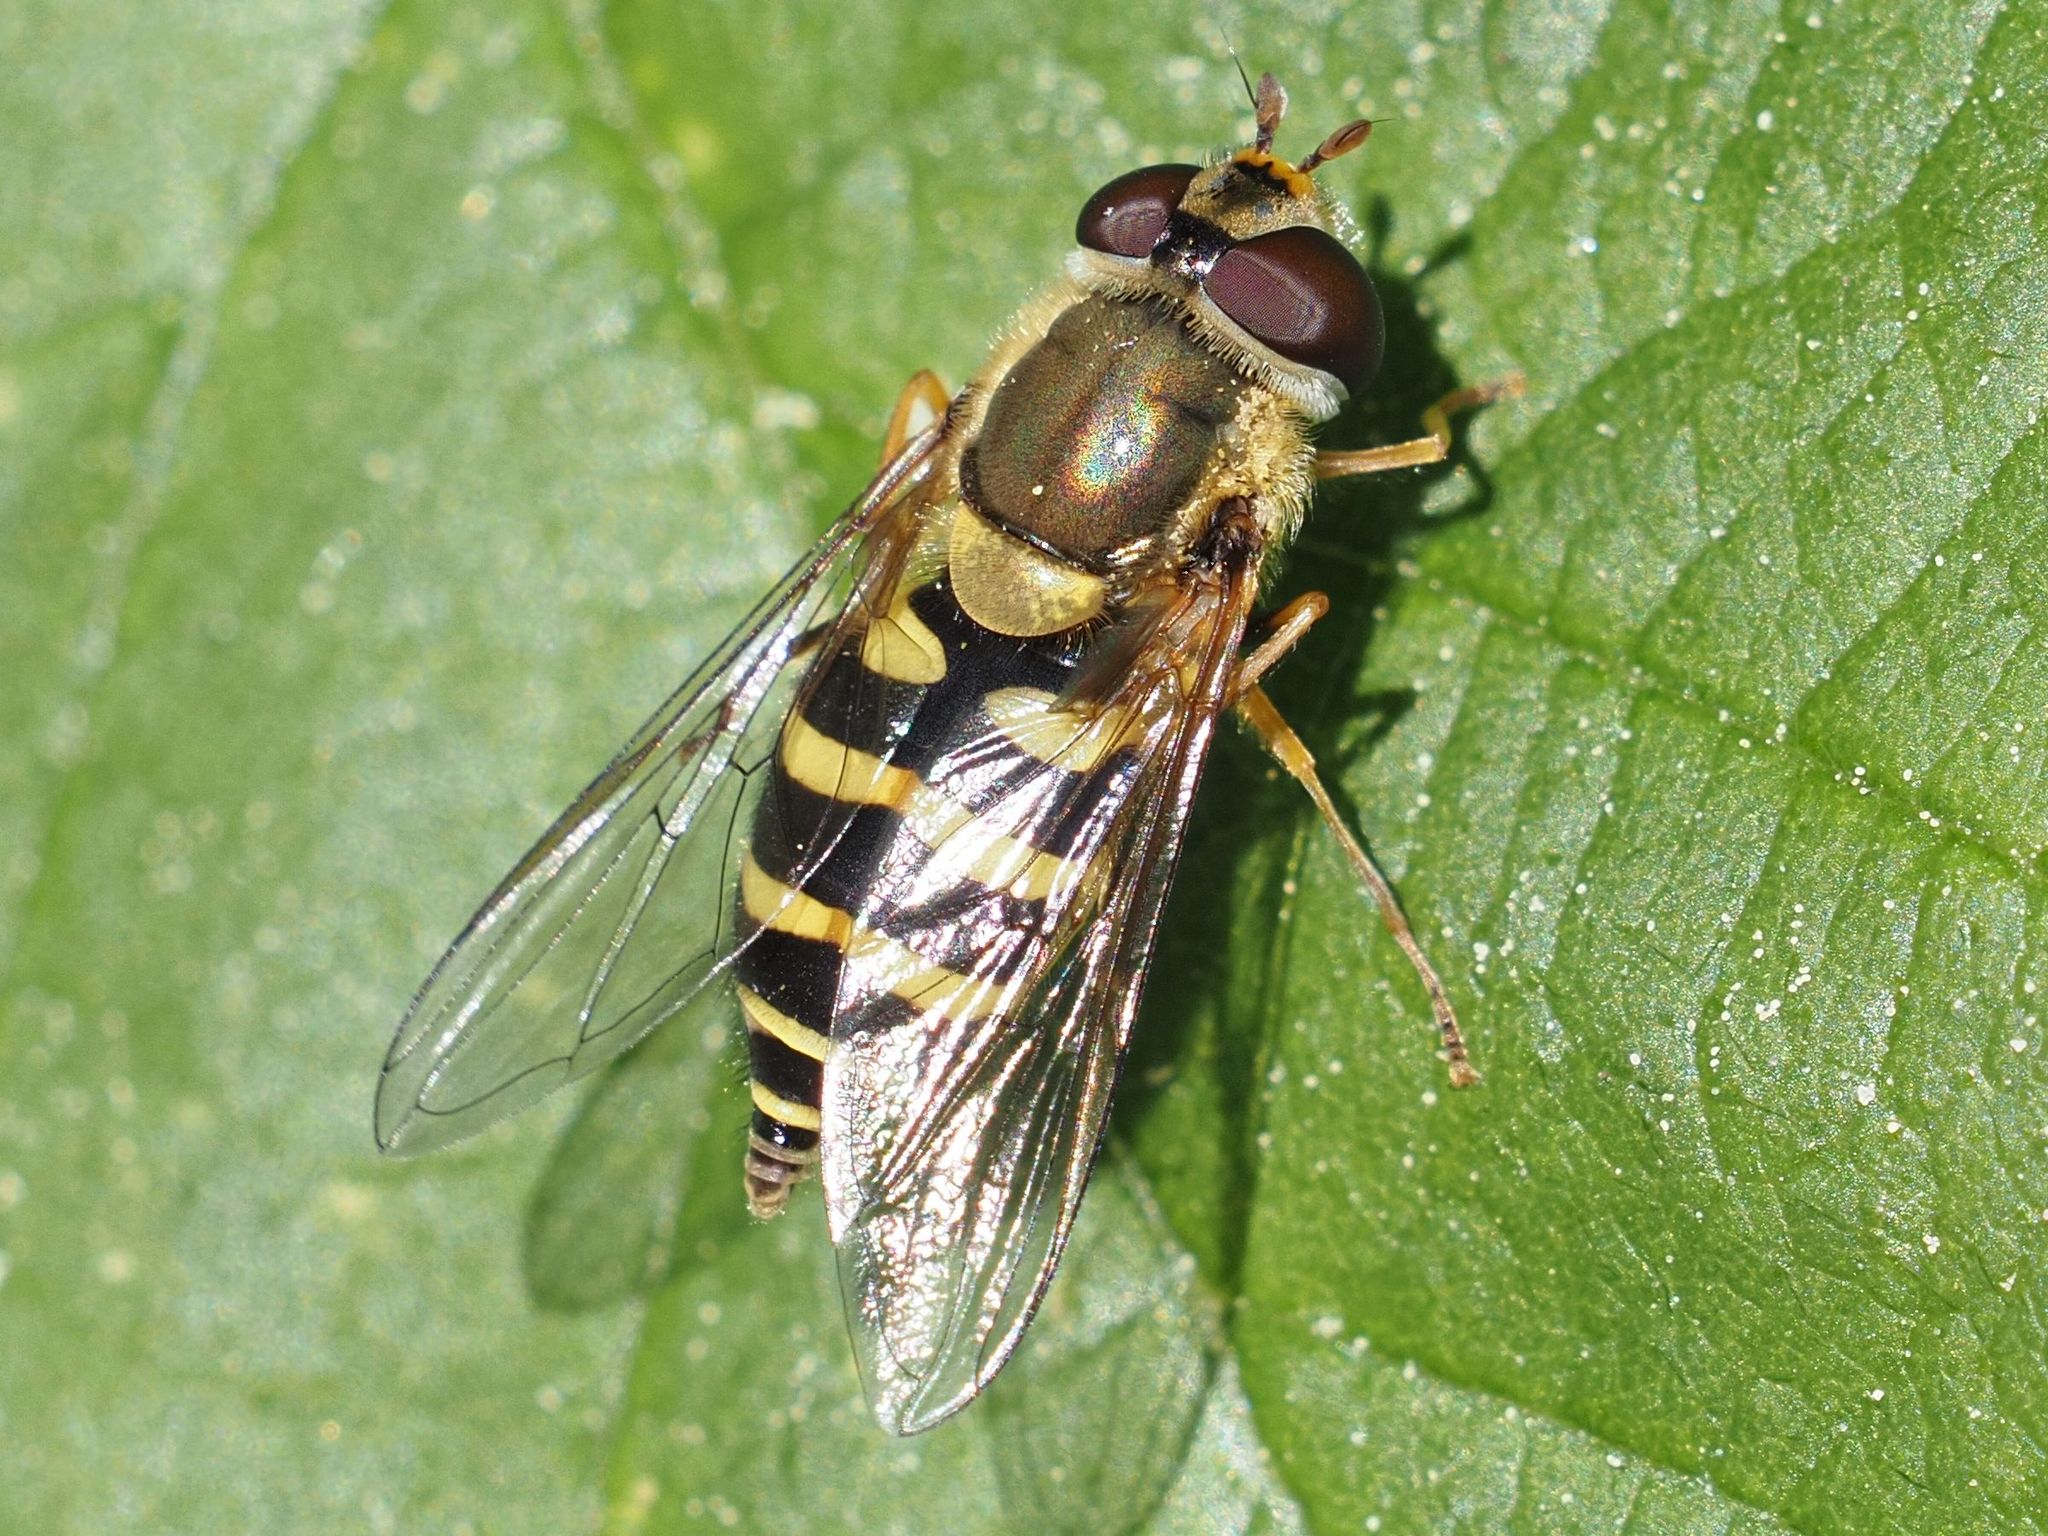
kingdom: Animalia
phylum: Arthropoda
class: Insecta
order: Diptera
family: Syrphidae
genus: Syrphus
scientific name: Syrphus
